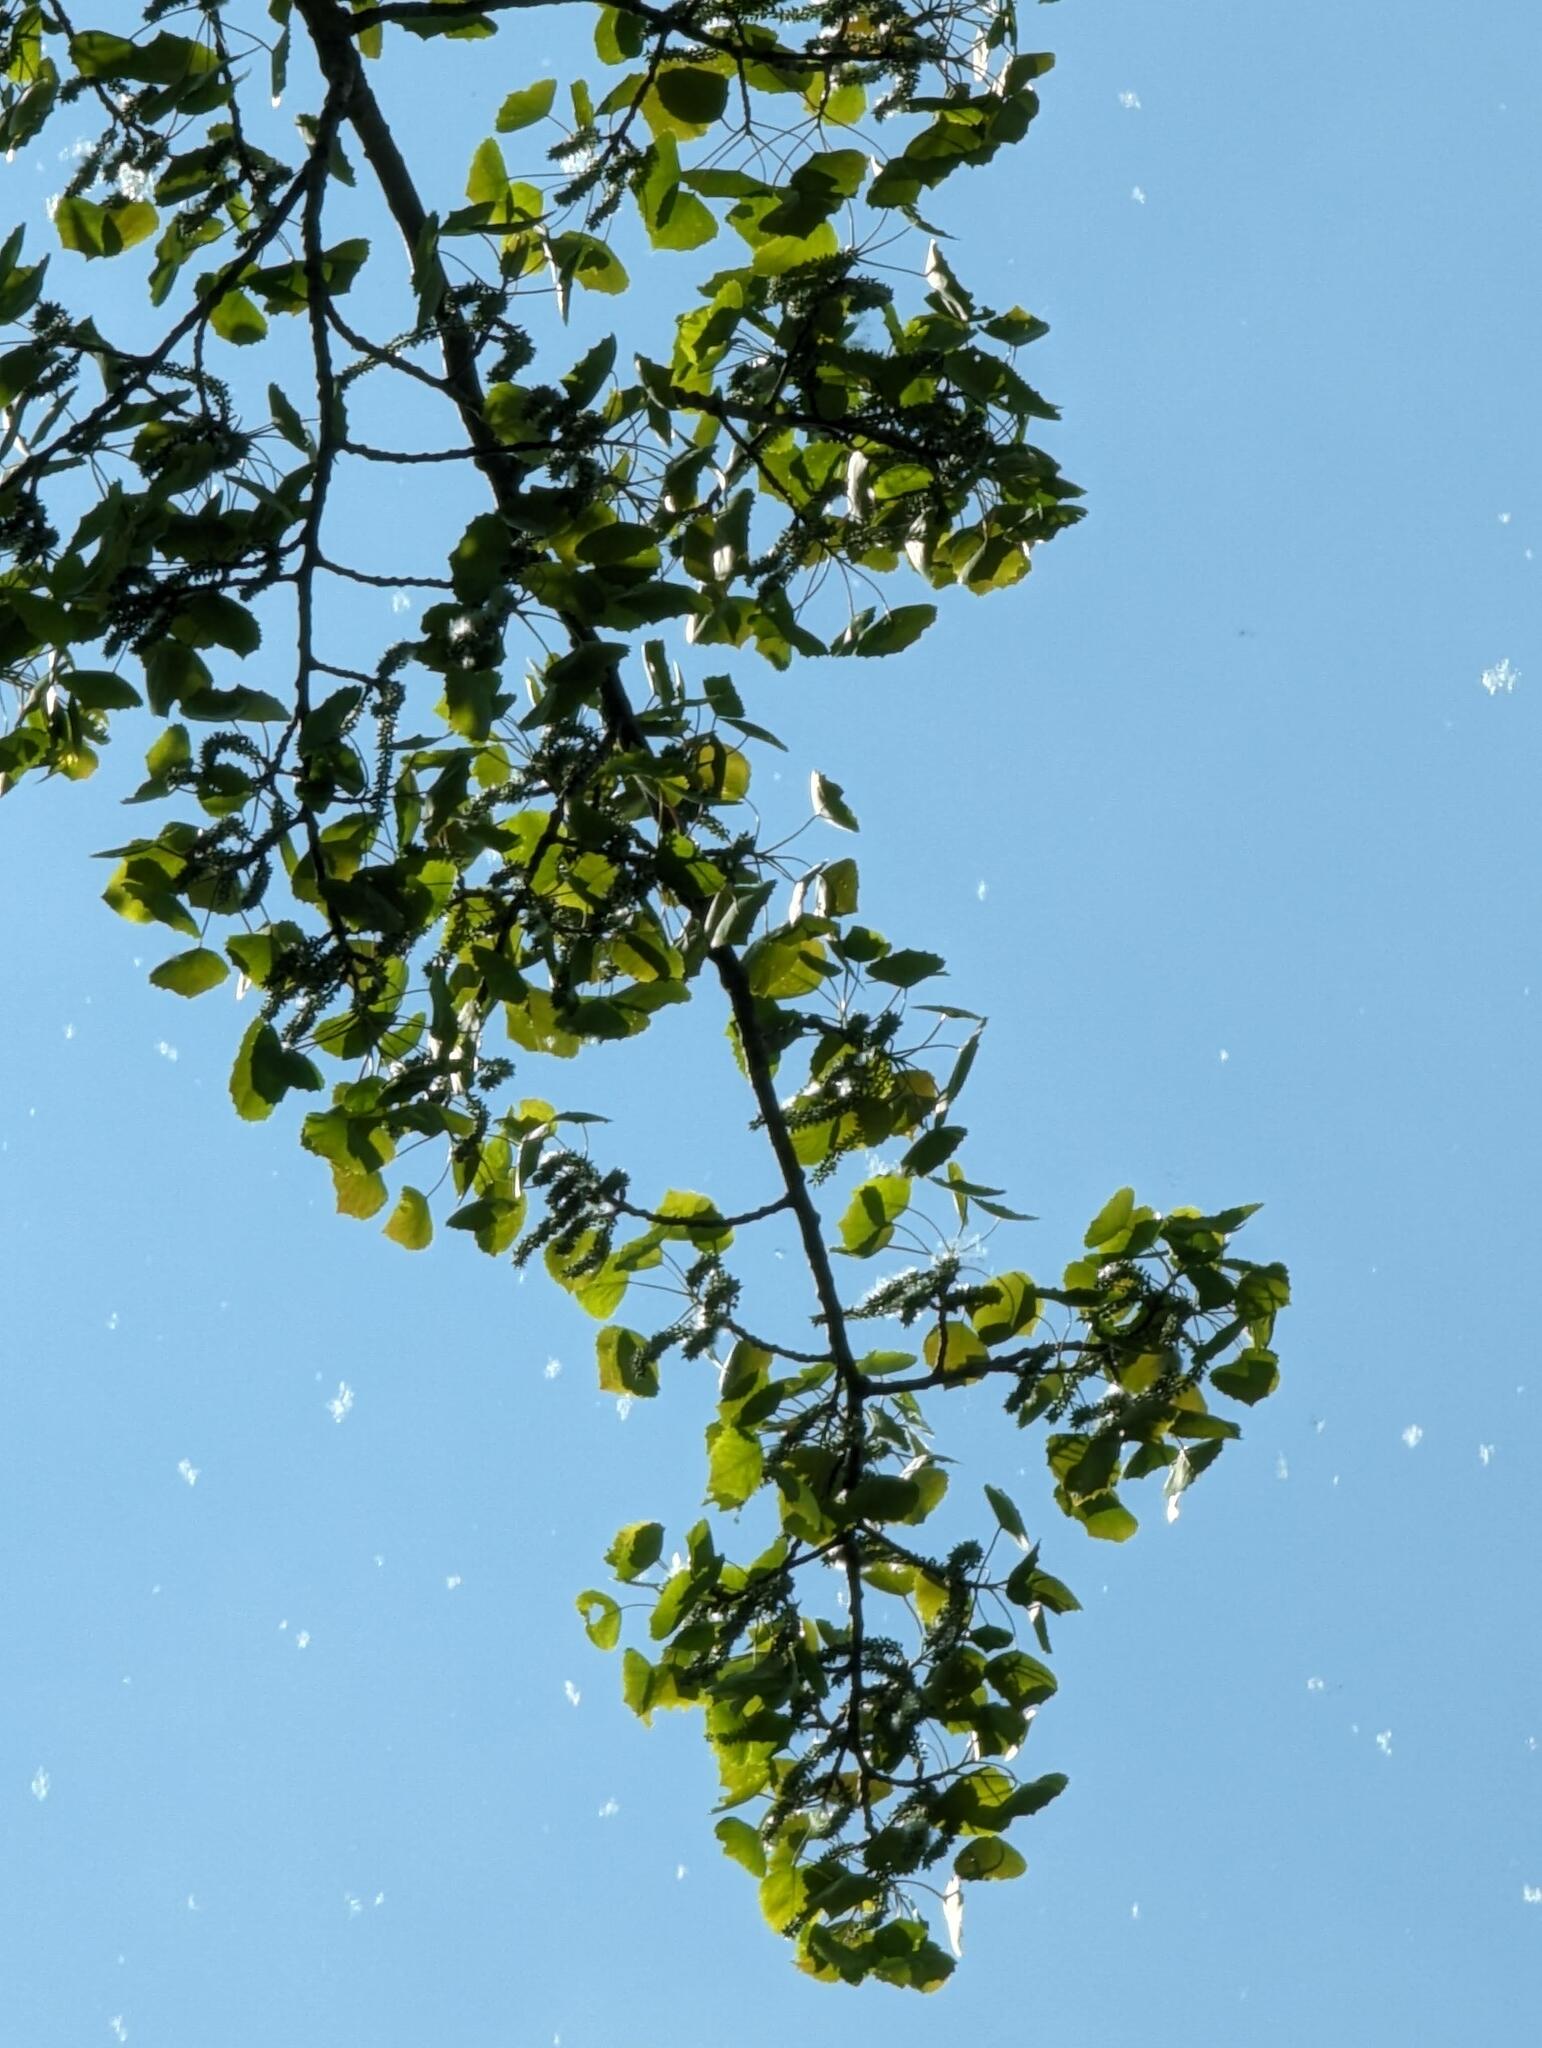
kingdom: Plantae
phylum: Tracheophyta
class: Magnoliopsida
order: Malpighiales
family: Salicaceae
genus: Populus
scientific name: Populus grandidentata
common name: Bigtooth aspen
